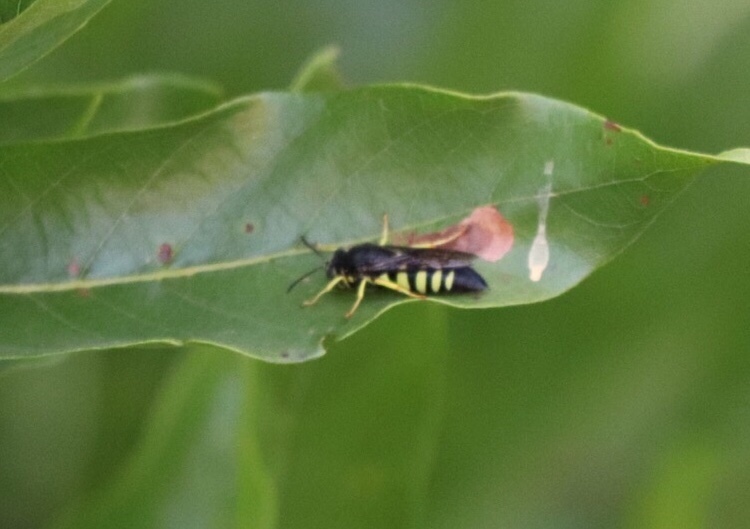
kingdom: Animalia
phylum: Arthropoda
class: Insecta
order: Hymenoptera
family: Crabronidae
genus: Bicyrtes
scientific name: Bicyrtes quadrifasciatus
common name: Four-banded stink bug hunter wasp
